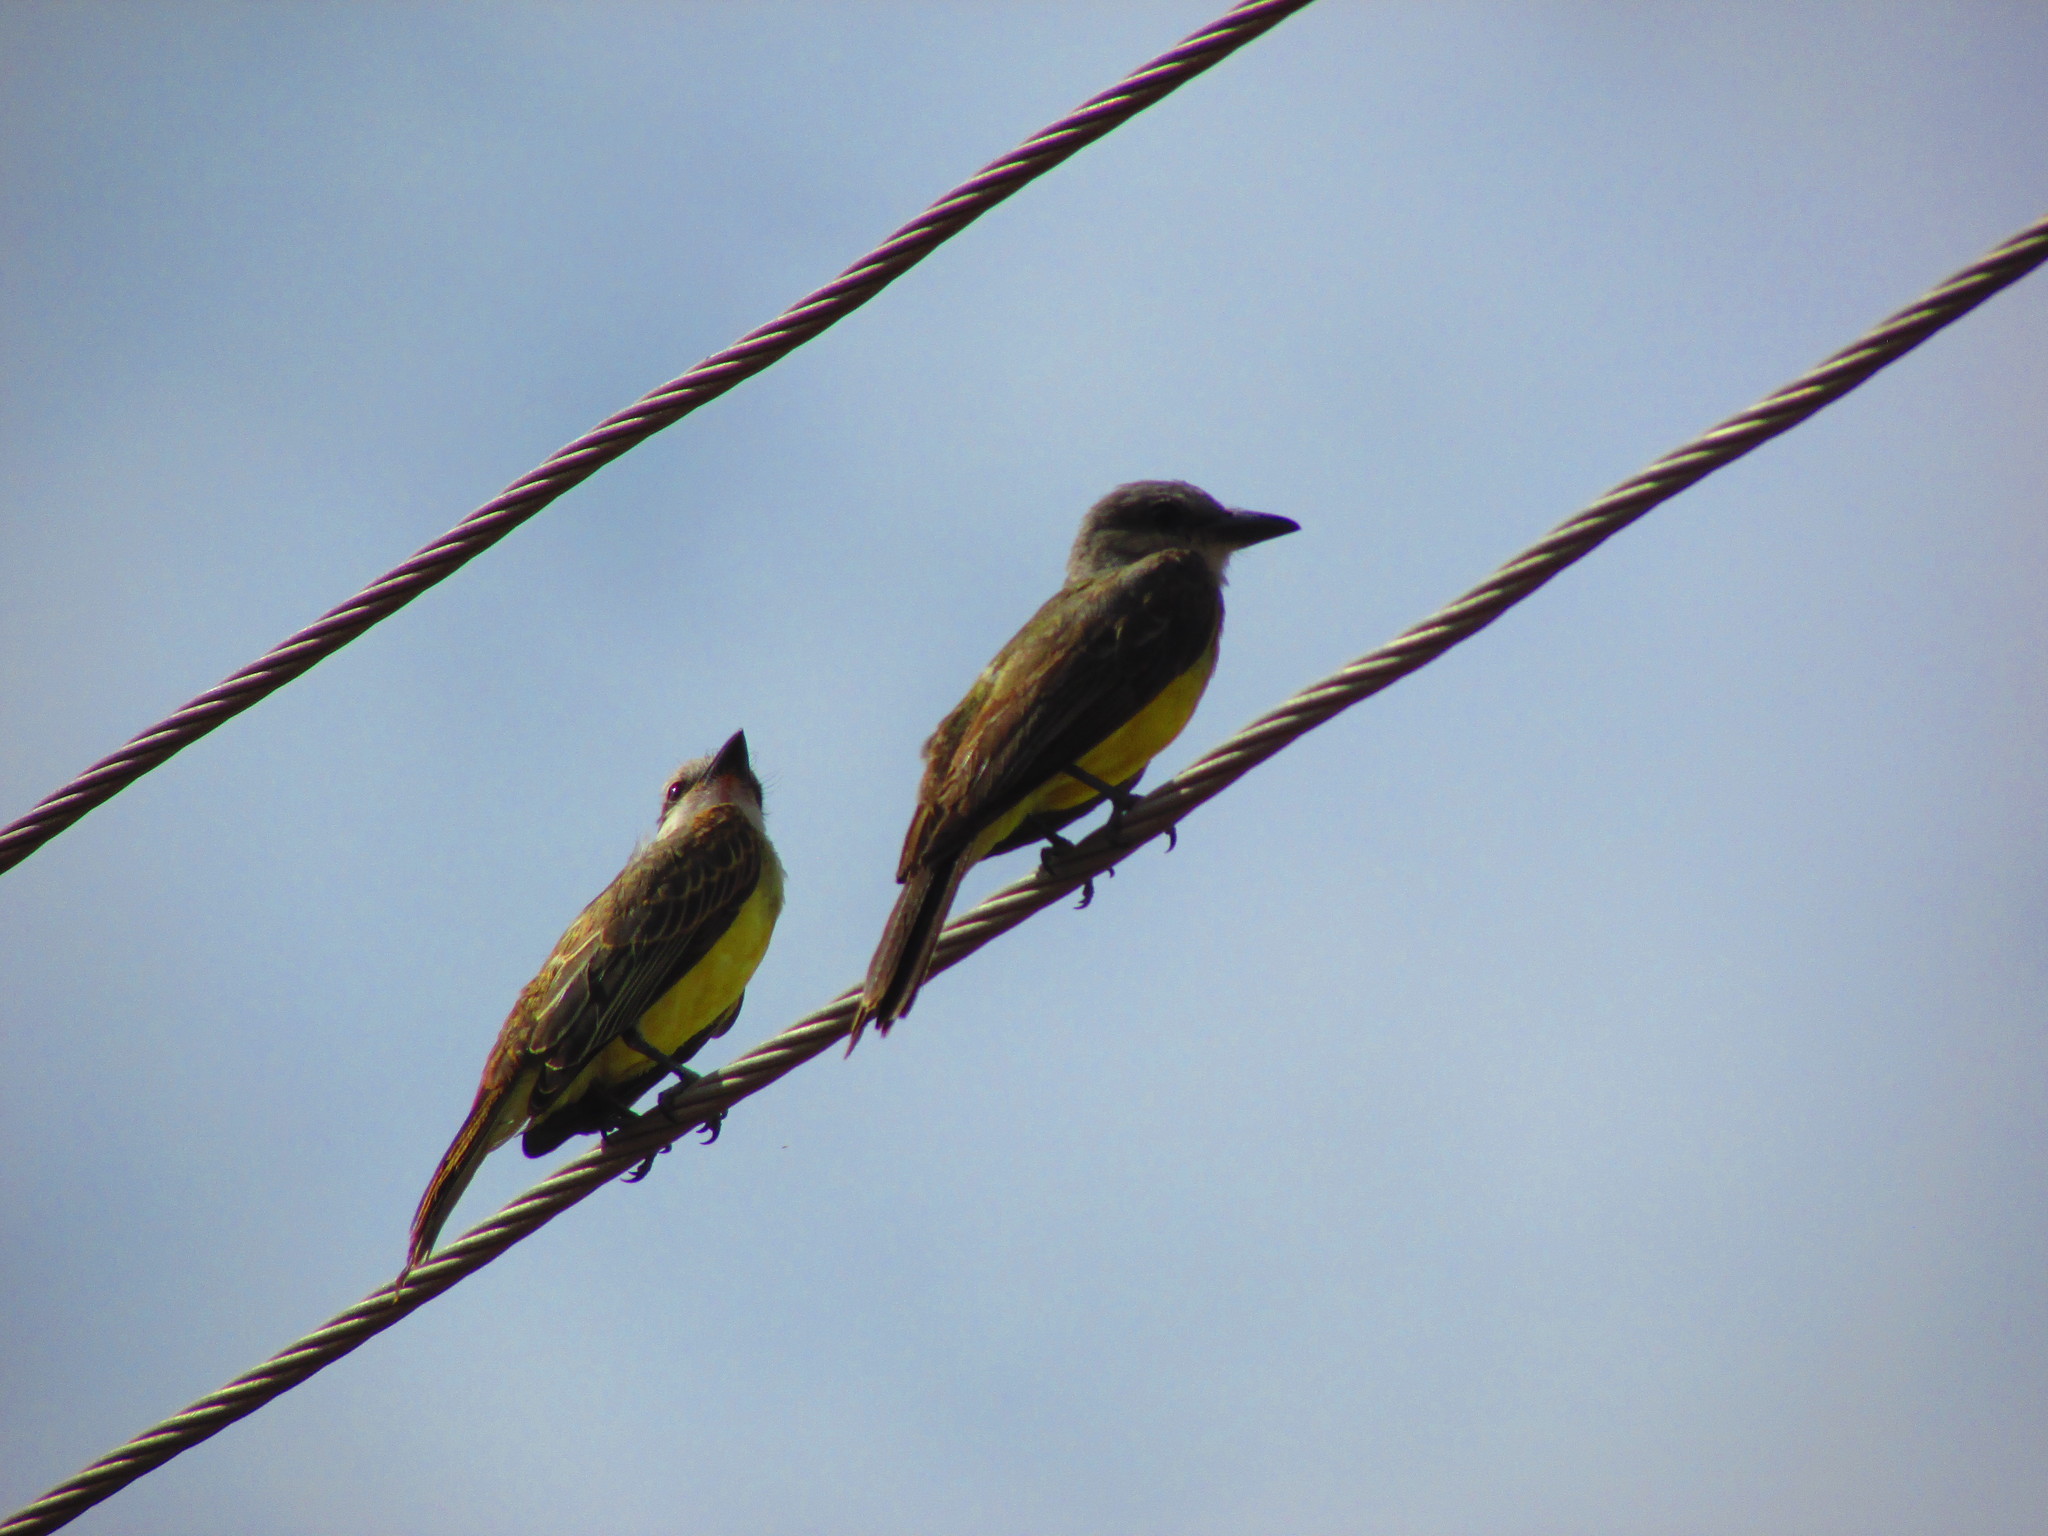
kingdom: Animalia
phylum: Chordata
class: Aves
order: Passeriformes
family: Tyrannidae
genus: Tyrannus
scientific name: Tyrannus melancholicus
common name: Tropical kingbird
